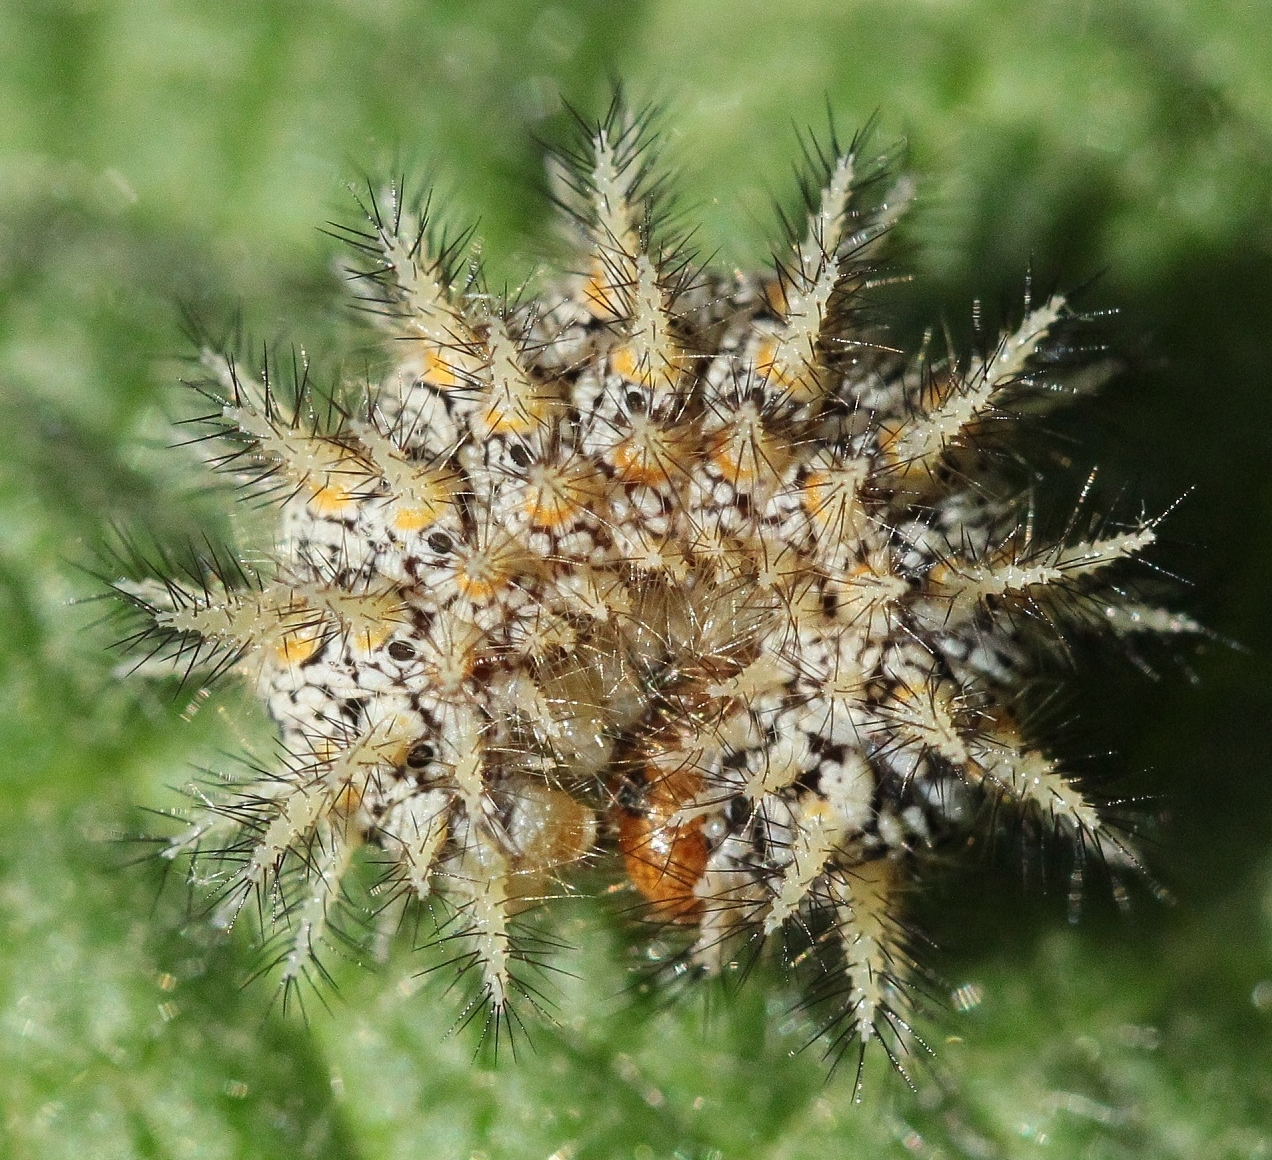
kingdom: Animalia
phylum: Arthropoda
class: Insecta
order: Lepidoptera
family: Nymphalidae
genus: Melitaea
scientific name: Melitaea trivia
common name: Lesser spotted fritillary
